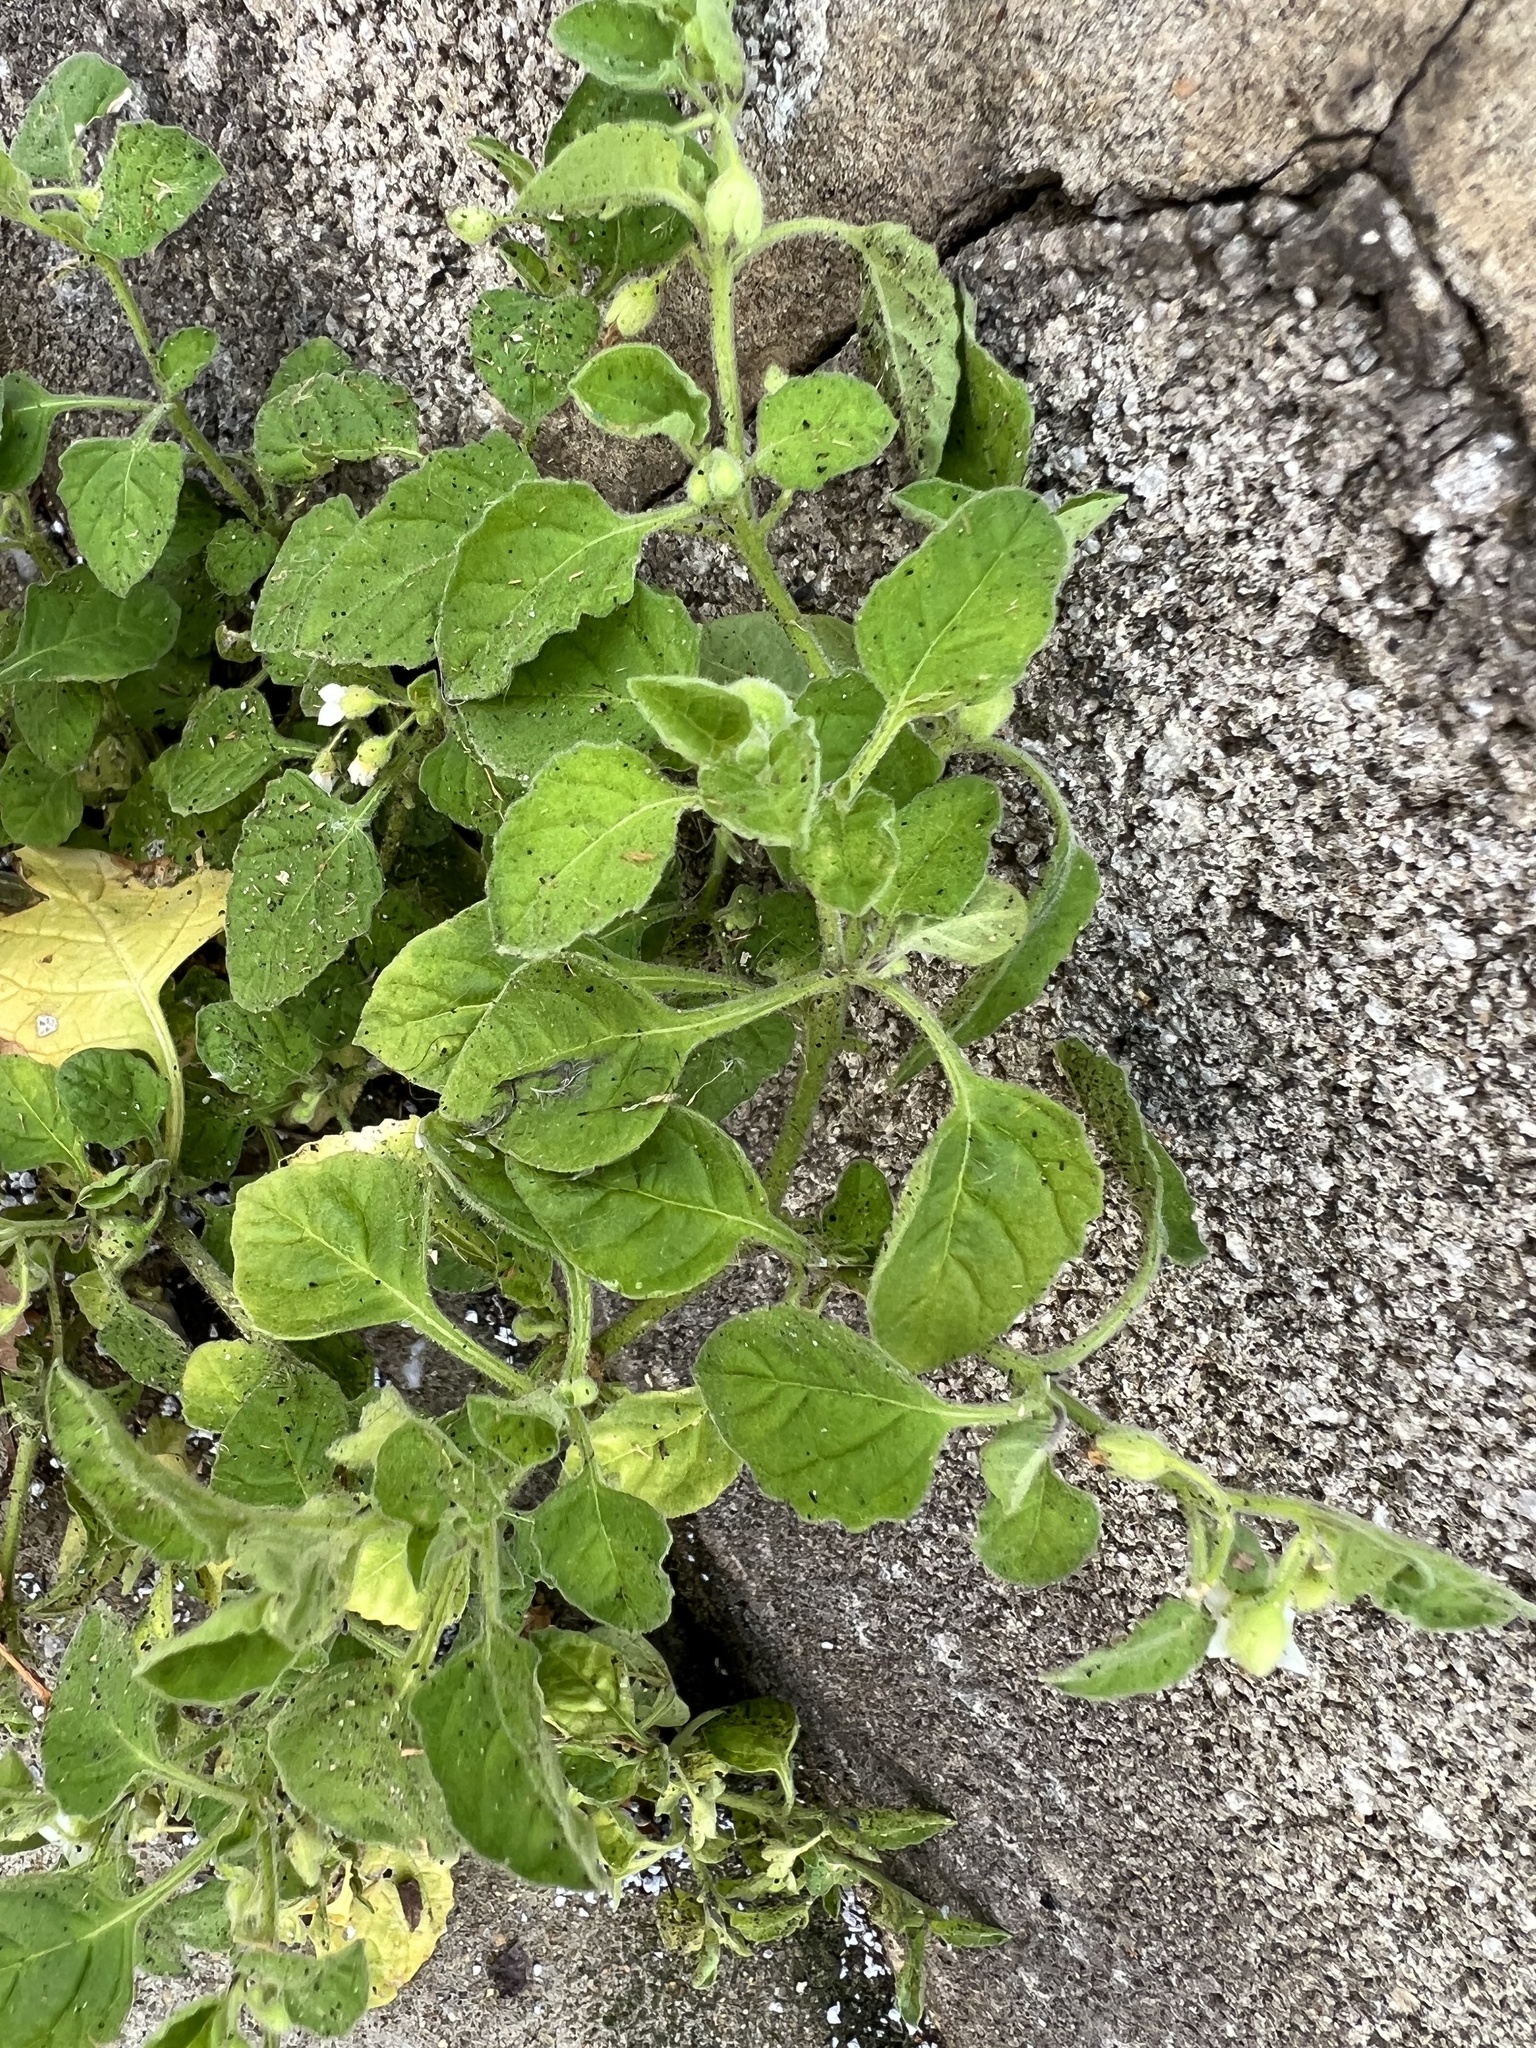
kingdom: Plantae
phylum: Tracheophyta
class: Magnoliopsida
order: Solanales
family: Solanaceae
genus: Solanum
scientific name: Solanum sarrachoides
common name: Leafy-fruited nightshade
